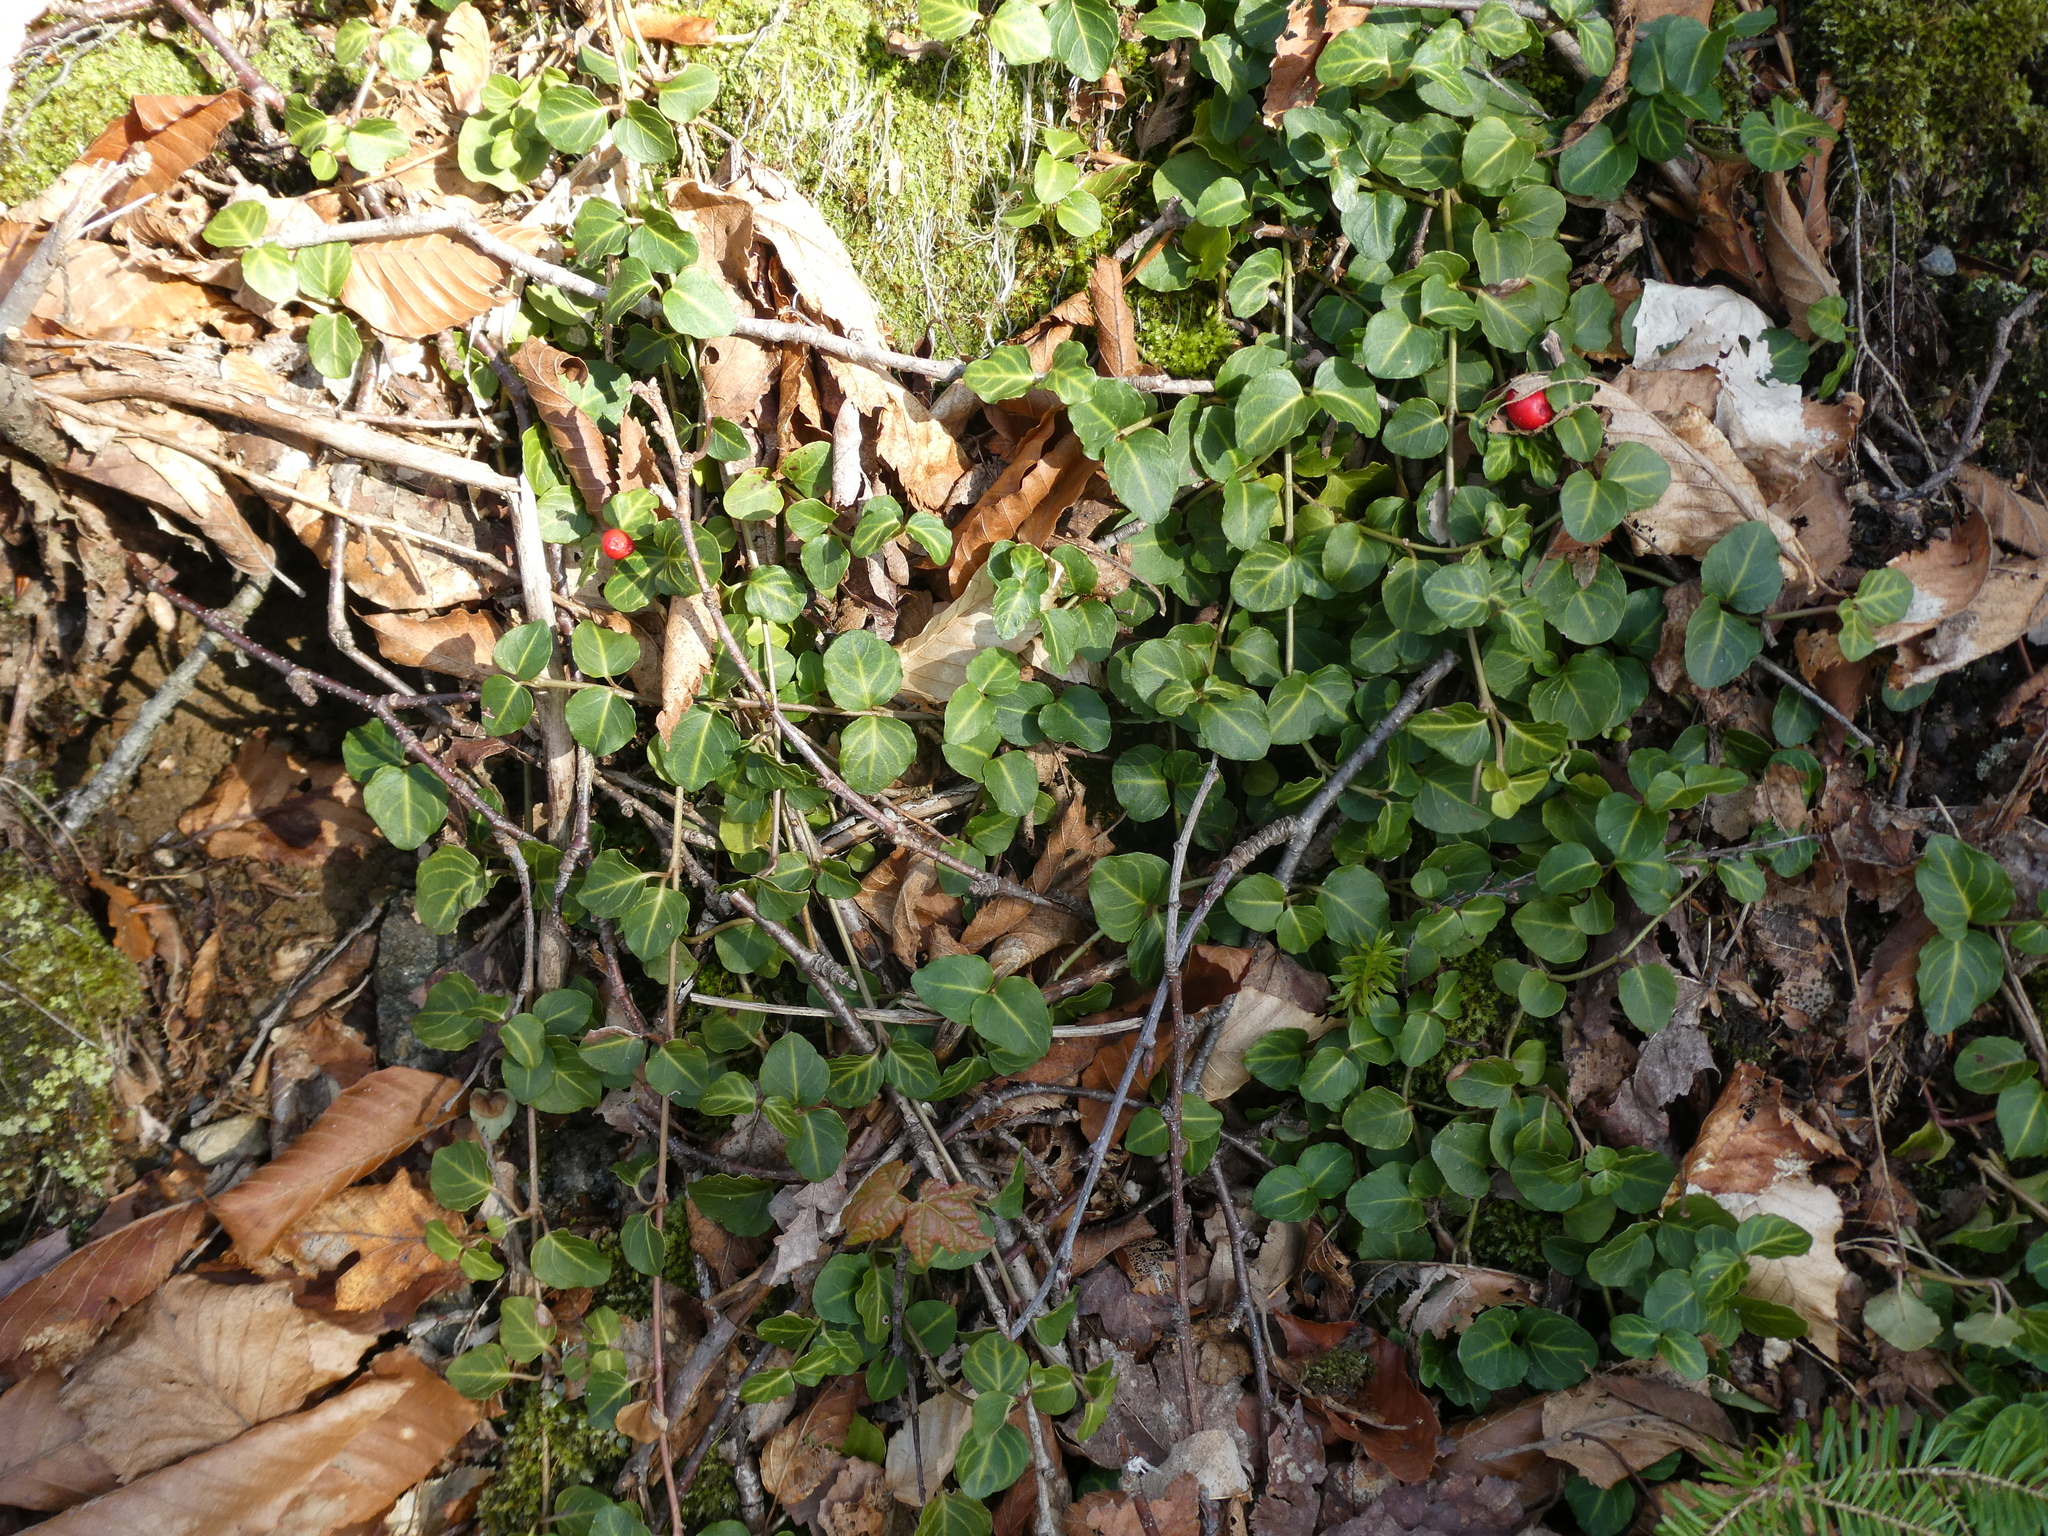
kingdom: Plantae
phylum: Tracheophyta
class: Magnoliopsida
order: Gentianales
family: Rubiaceae
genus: Mitchella
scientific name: Mitchella repens
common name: Partridge-berry
